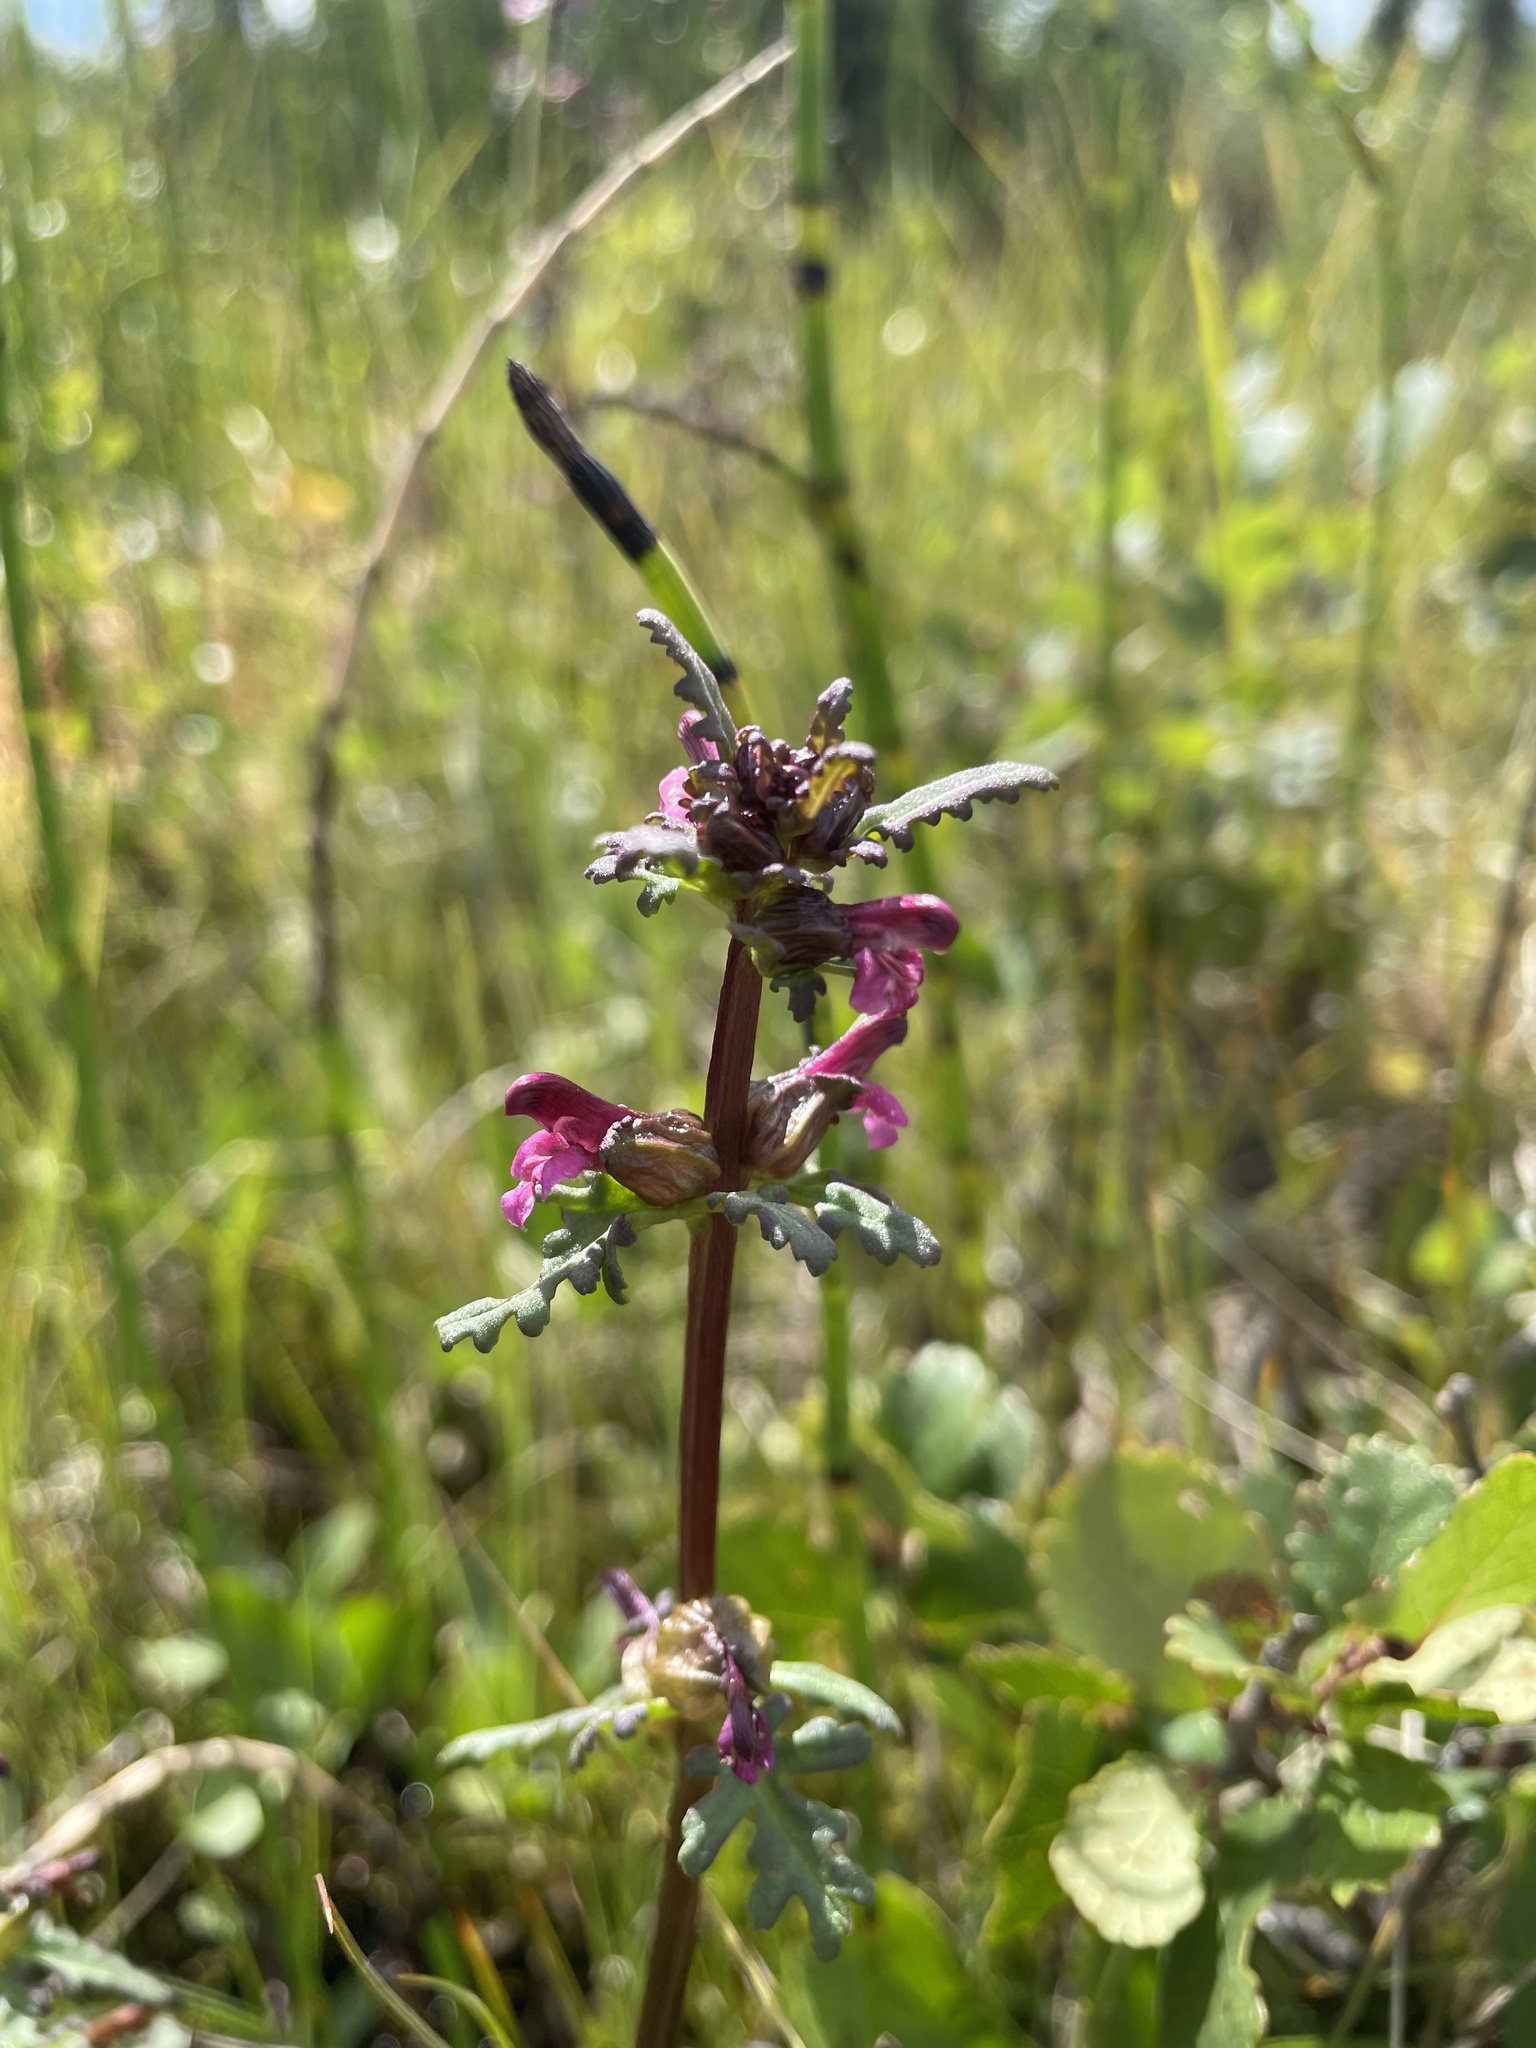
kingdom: Plantae
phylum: Tracheophyta
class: Magnoliopsida
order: Lamiales
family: Orobanchaceae
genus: Pedicularis
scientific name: Pedicularis parviflora
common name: Muskeg lousewort
